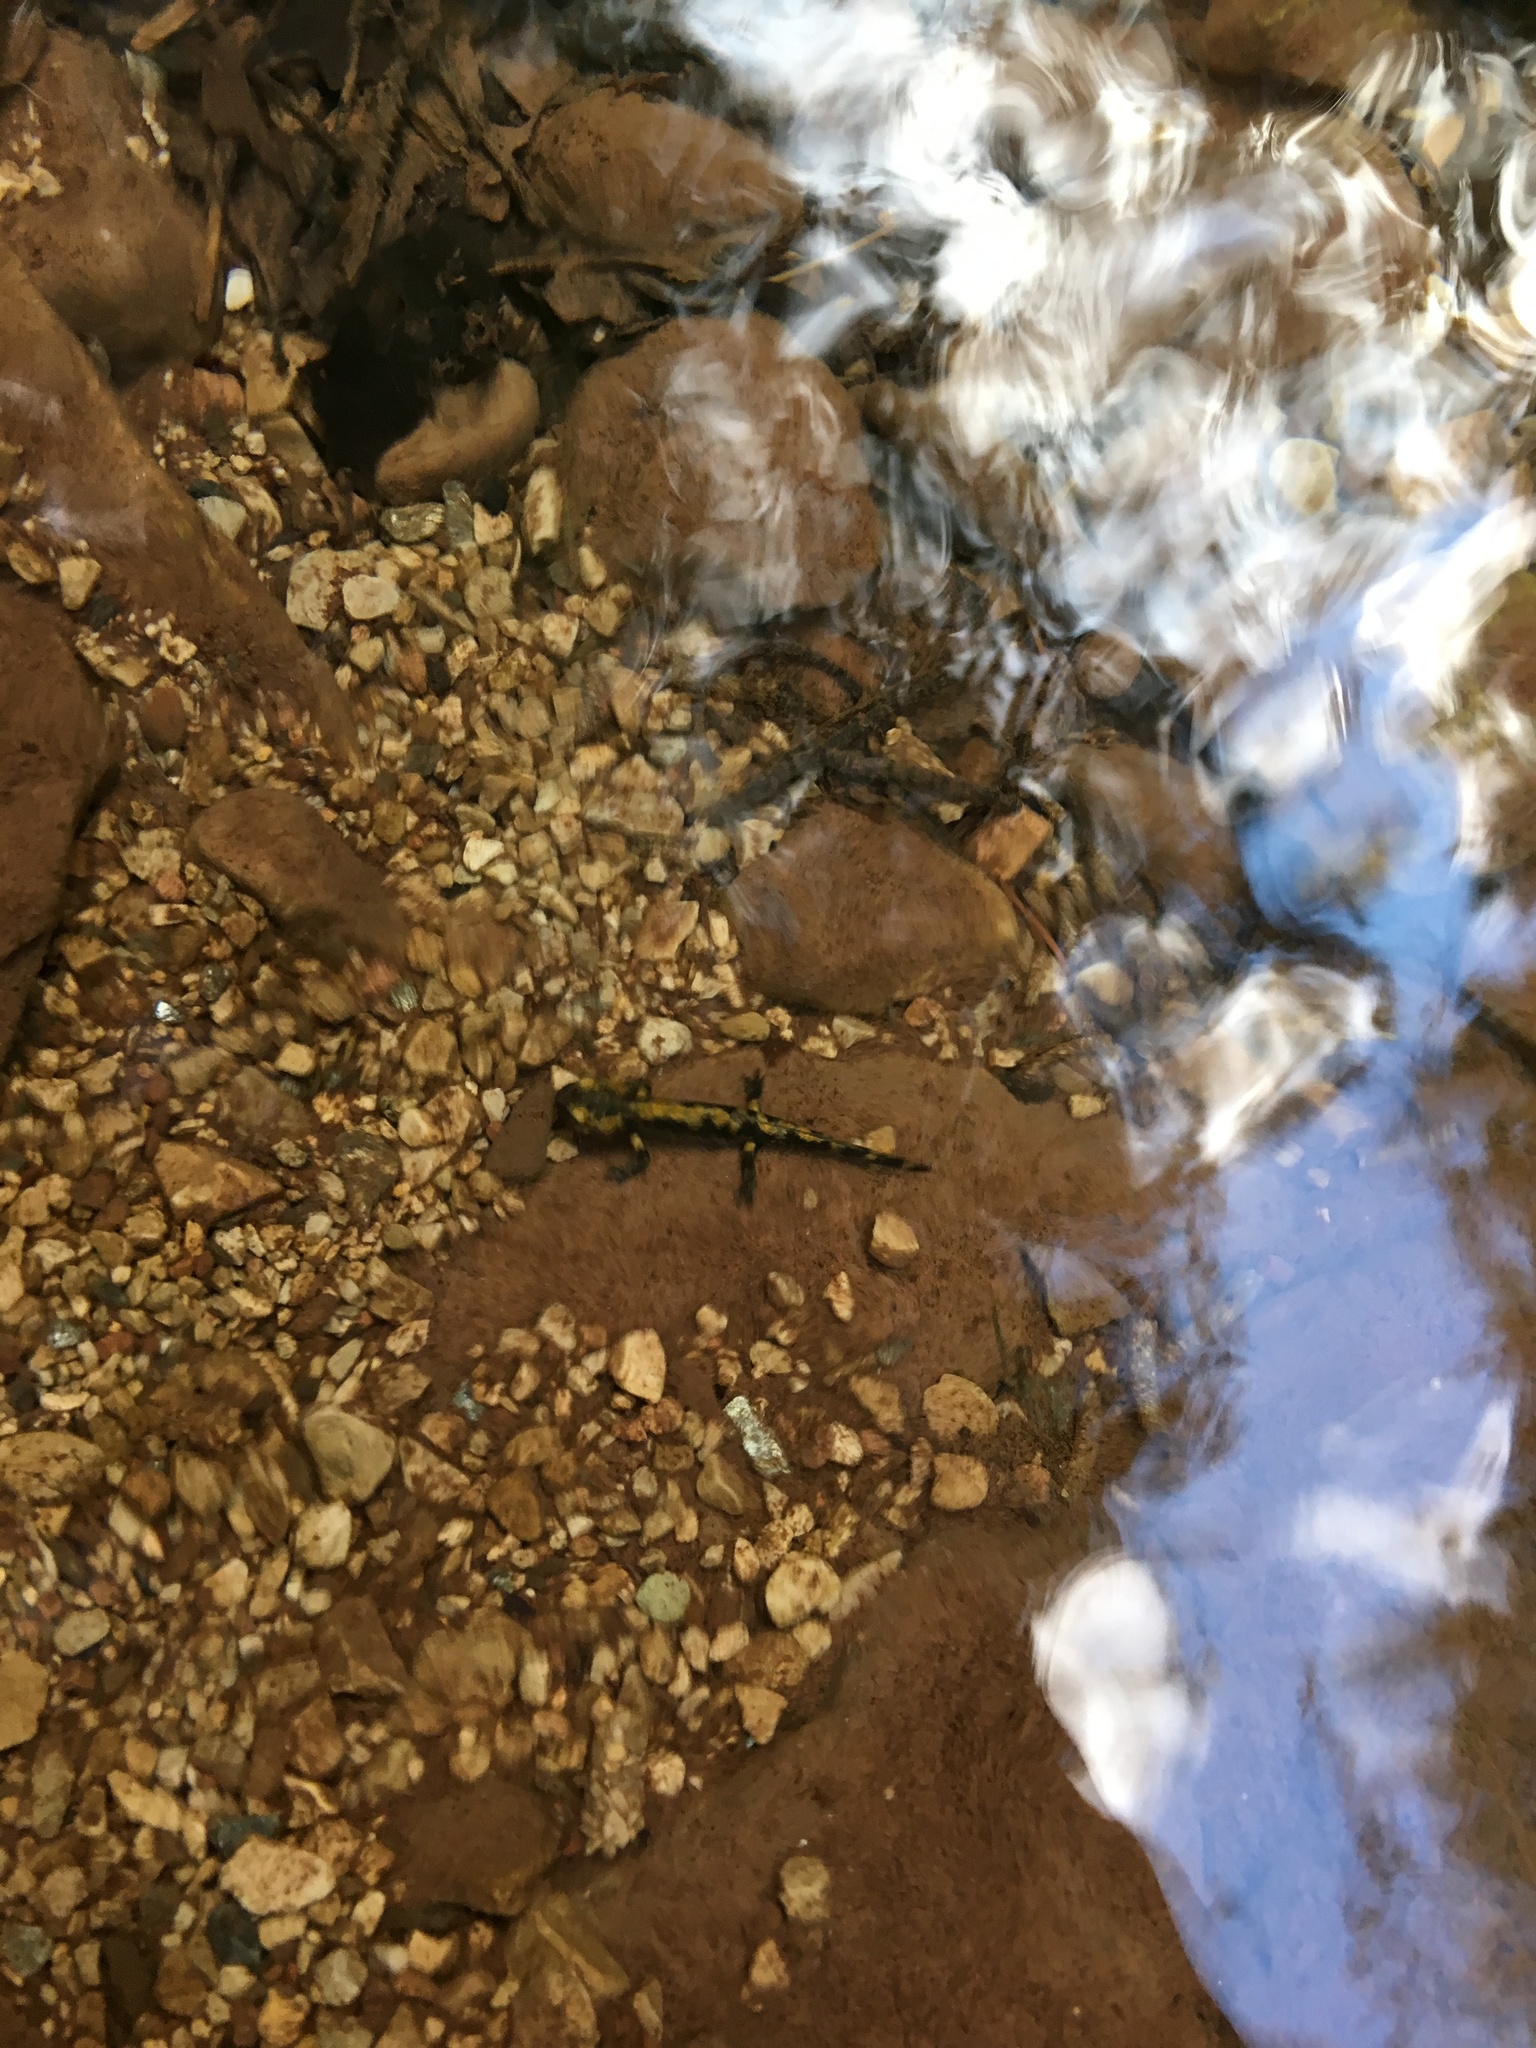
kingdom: Animalia
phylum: Chordata
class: Amphibia
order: Caudata
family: Salamandridae
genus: Salamandra
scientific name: Salamandra salamandra
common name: Fire salamander
